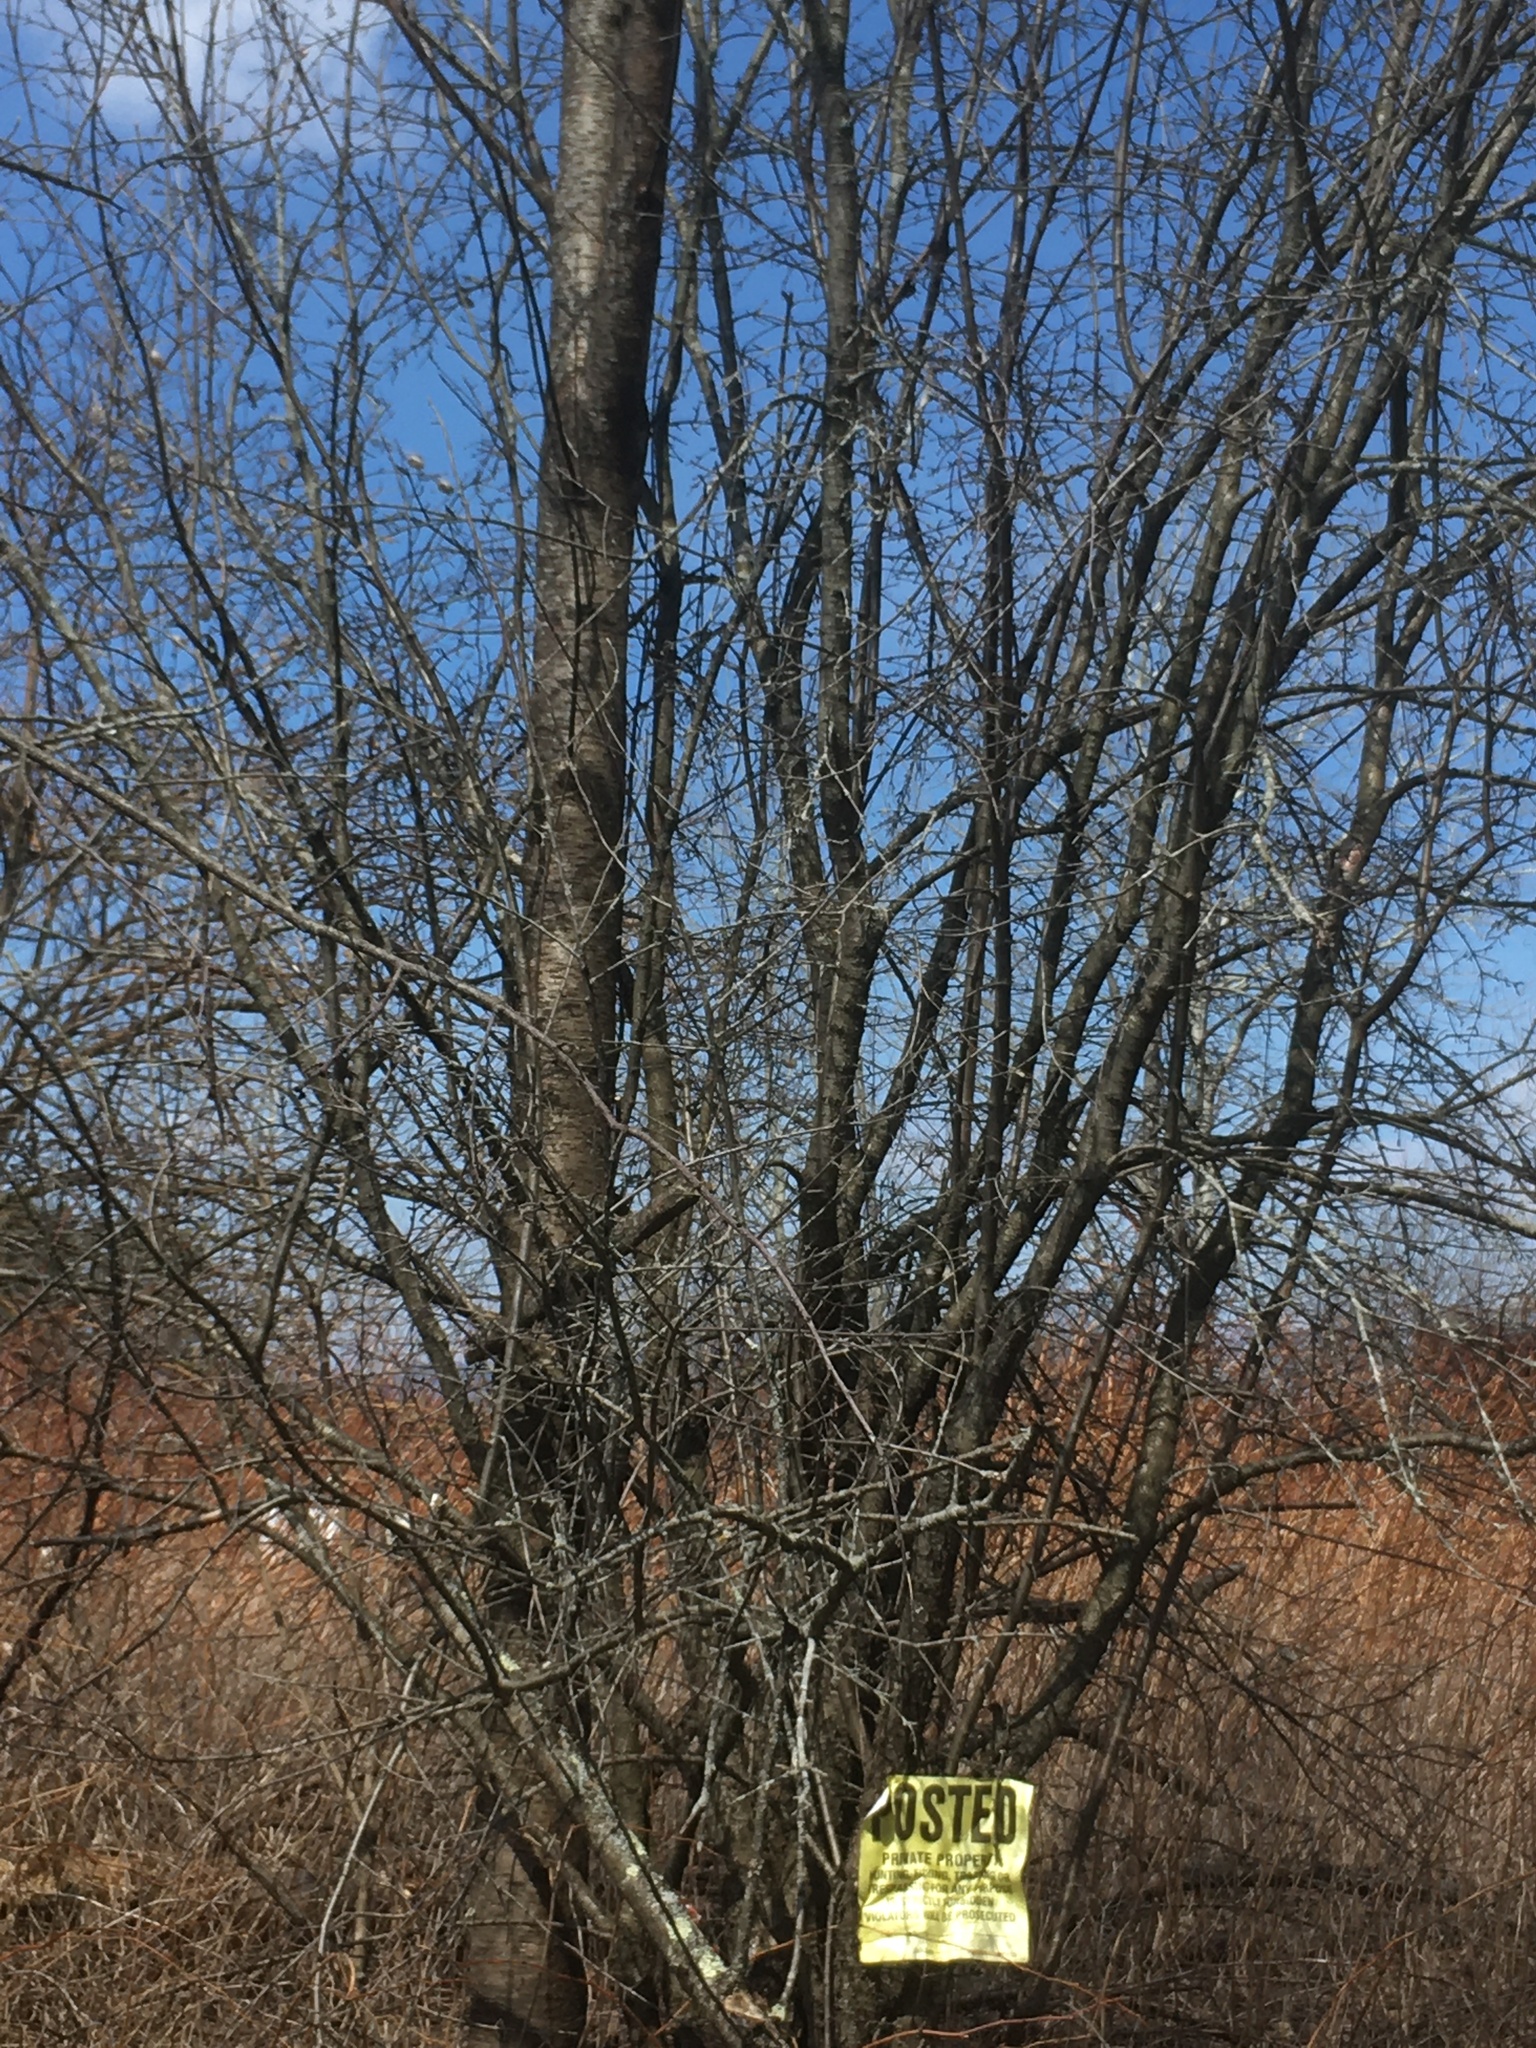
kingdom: Plantae
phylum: Tracheophyta
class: Magnoliopsida
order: Rosales
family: Rosaceae
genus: Prunus
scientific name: Prunus pensylvanica
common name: Pin cherry
